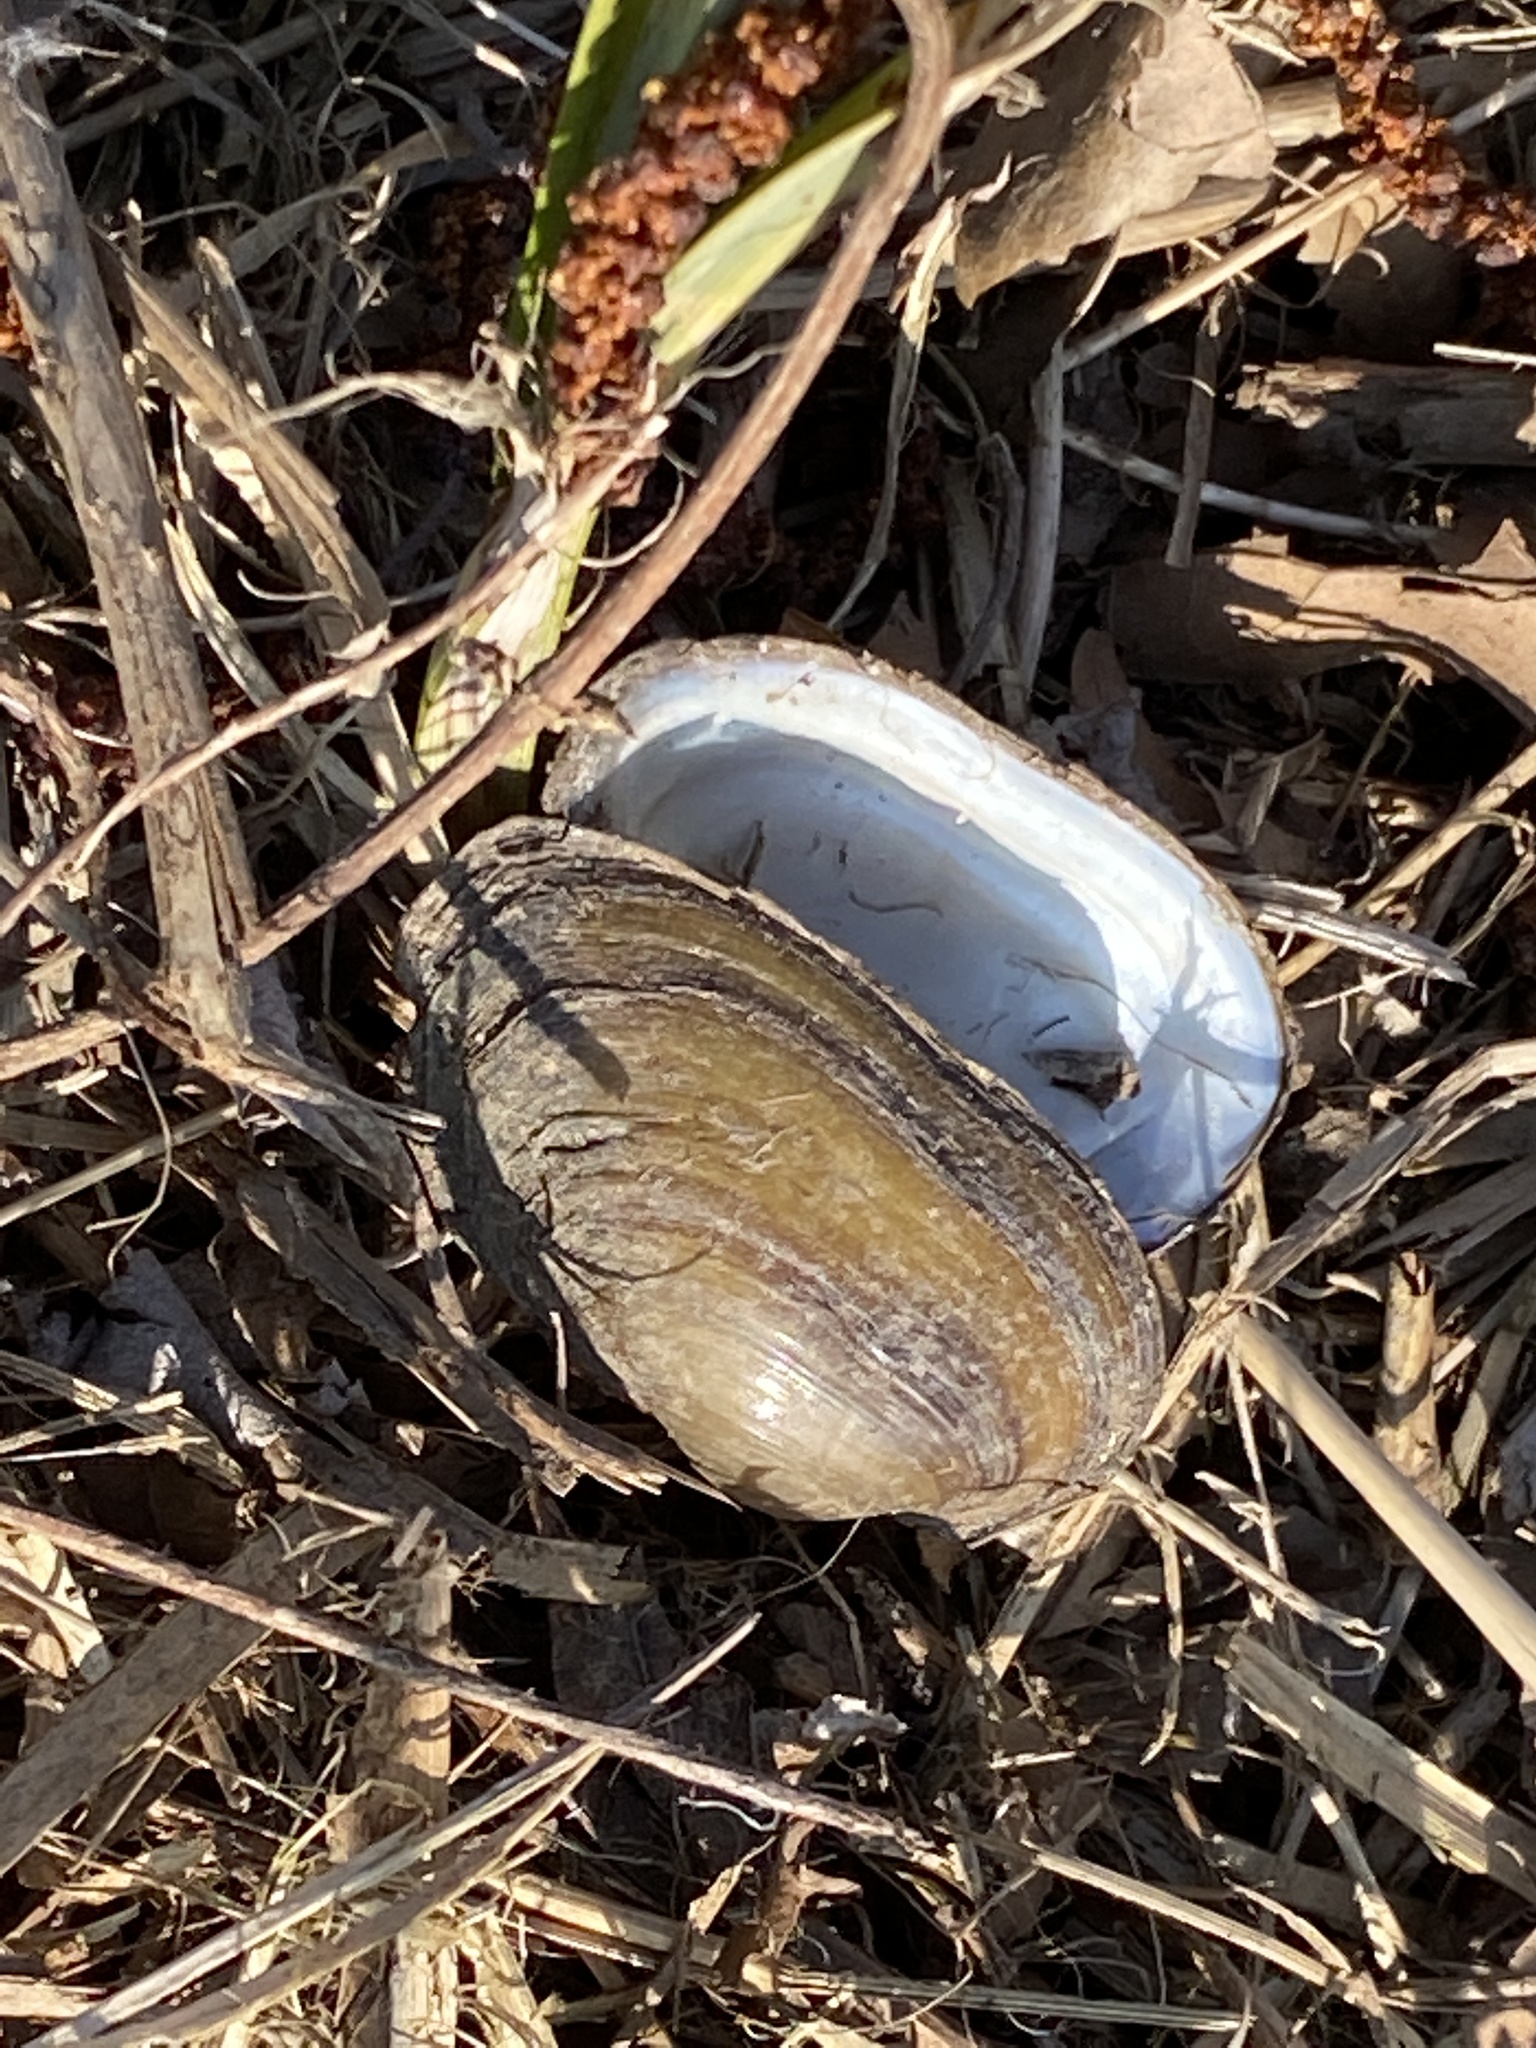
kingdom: Animalia
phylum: Mollusca
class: Bivalvia
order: Unionida
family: Unionidae
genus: Unio
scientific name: Unio elongatulus
